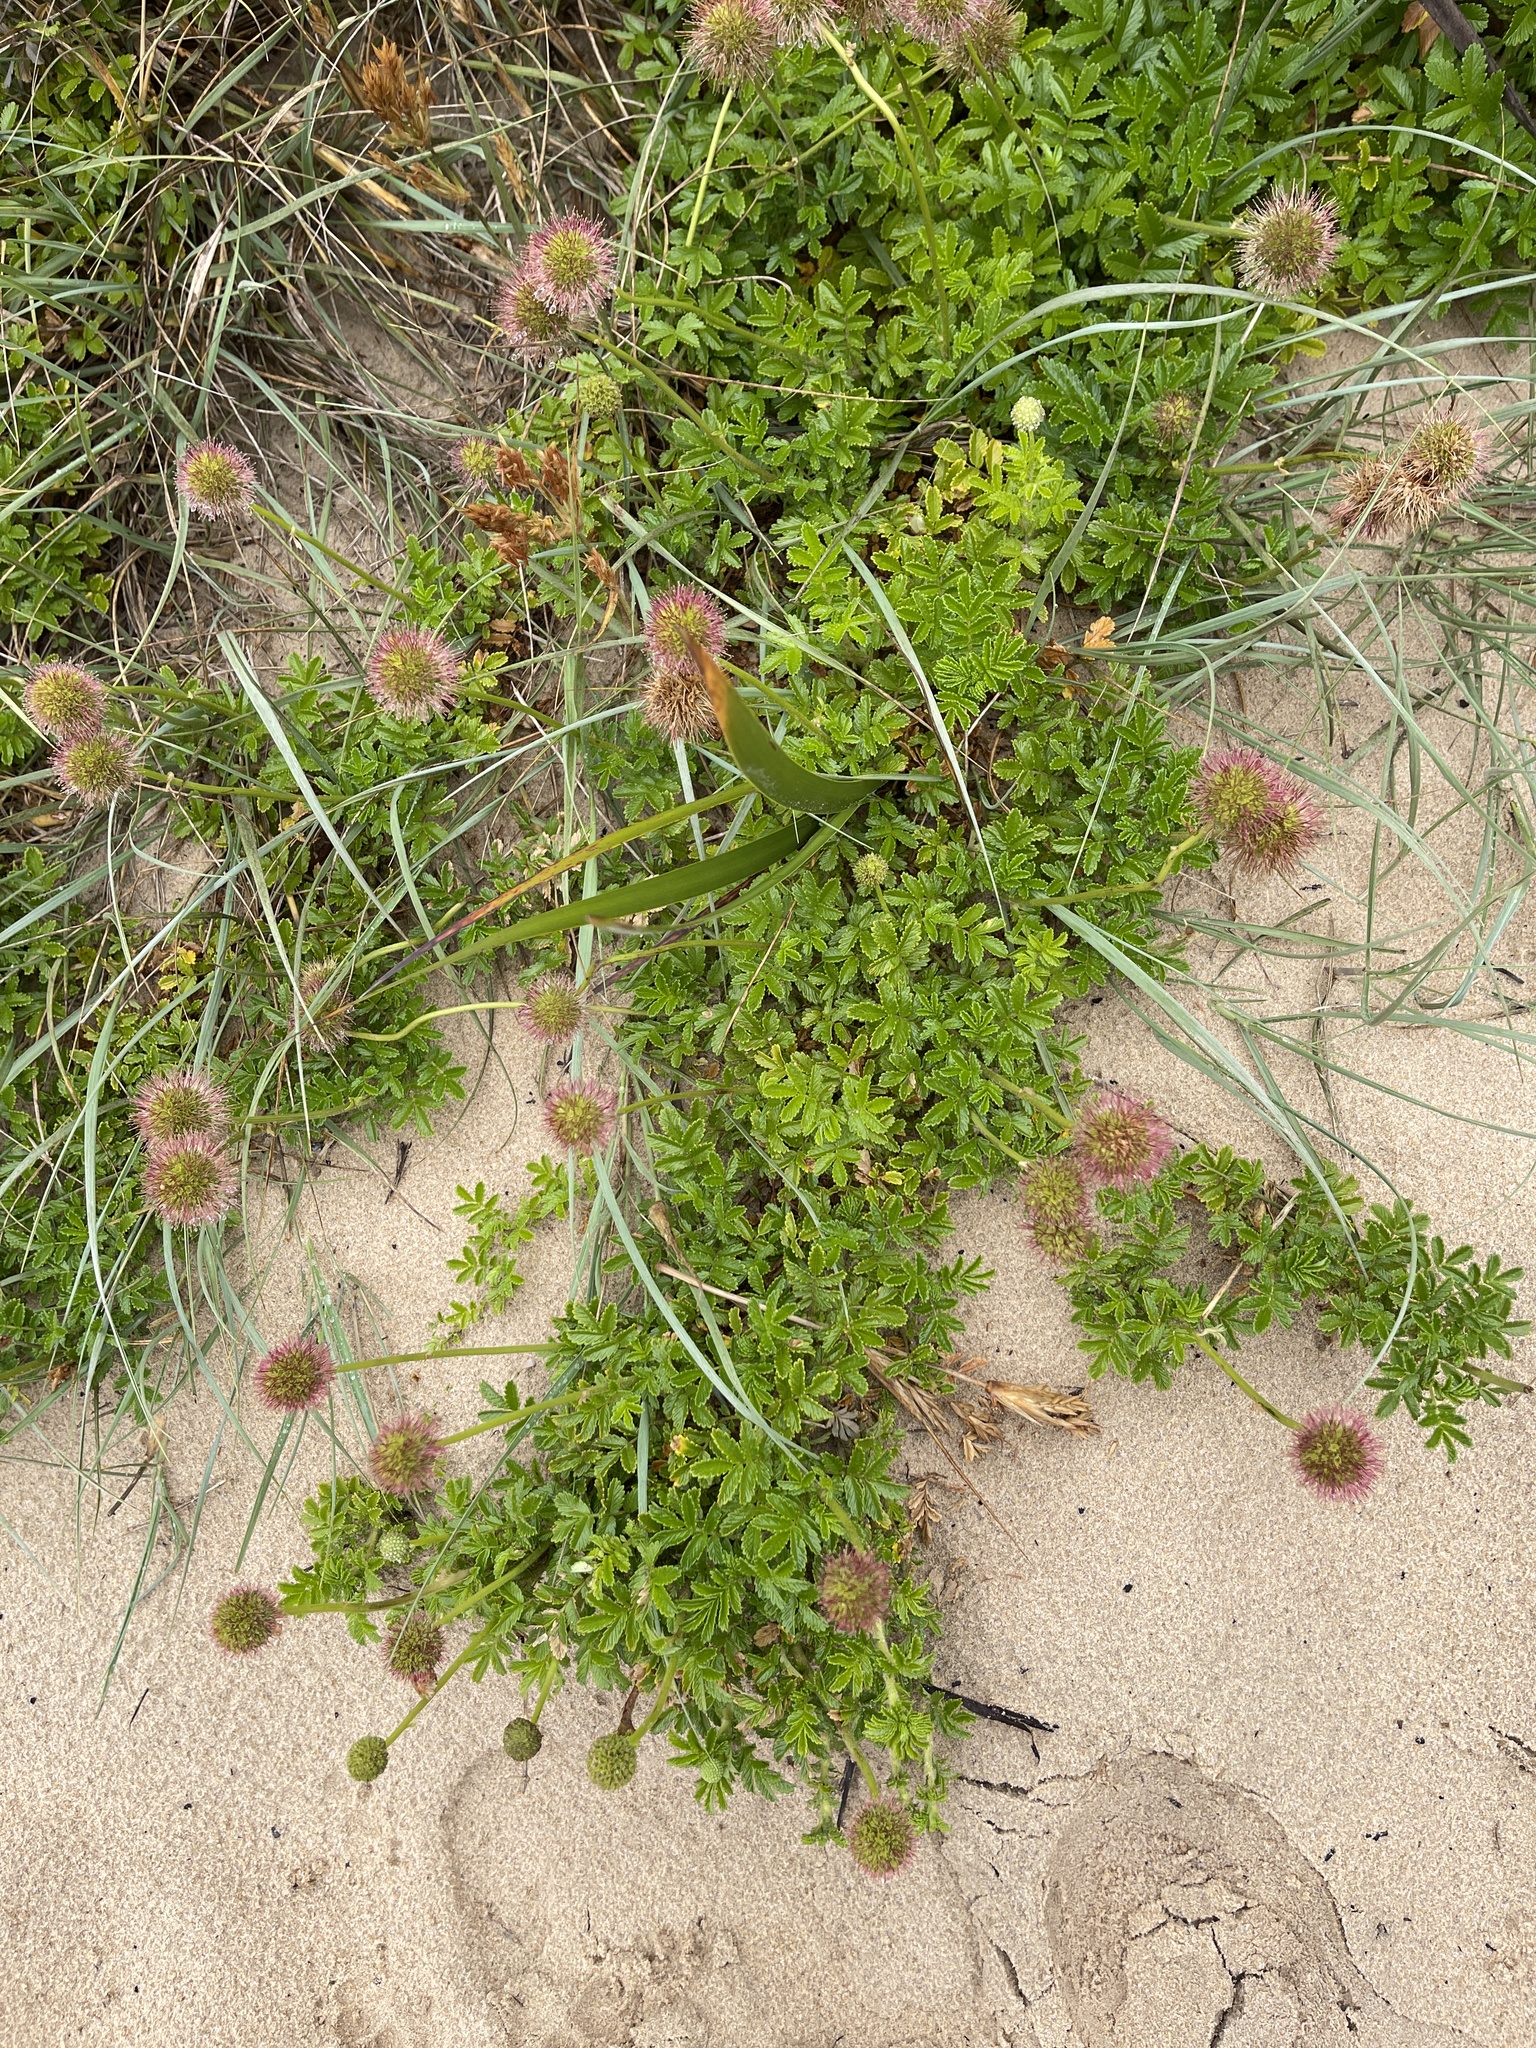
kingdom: Plantae
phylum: Tracheophyta
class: Magnoliopsida
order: Rosales
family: Rosaceae
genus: Acaena
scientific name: Acaena novae-zelandiae
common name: Pirri-pirri-bur
